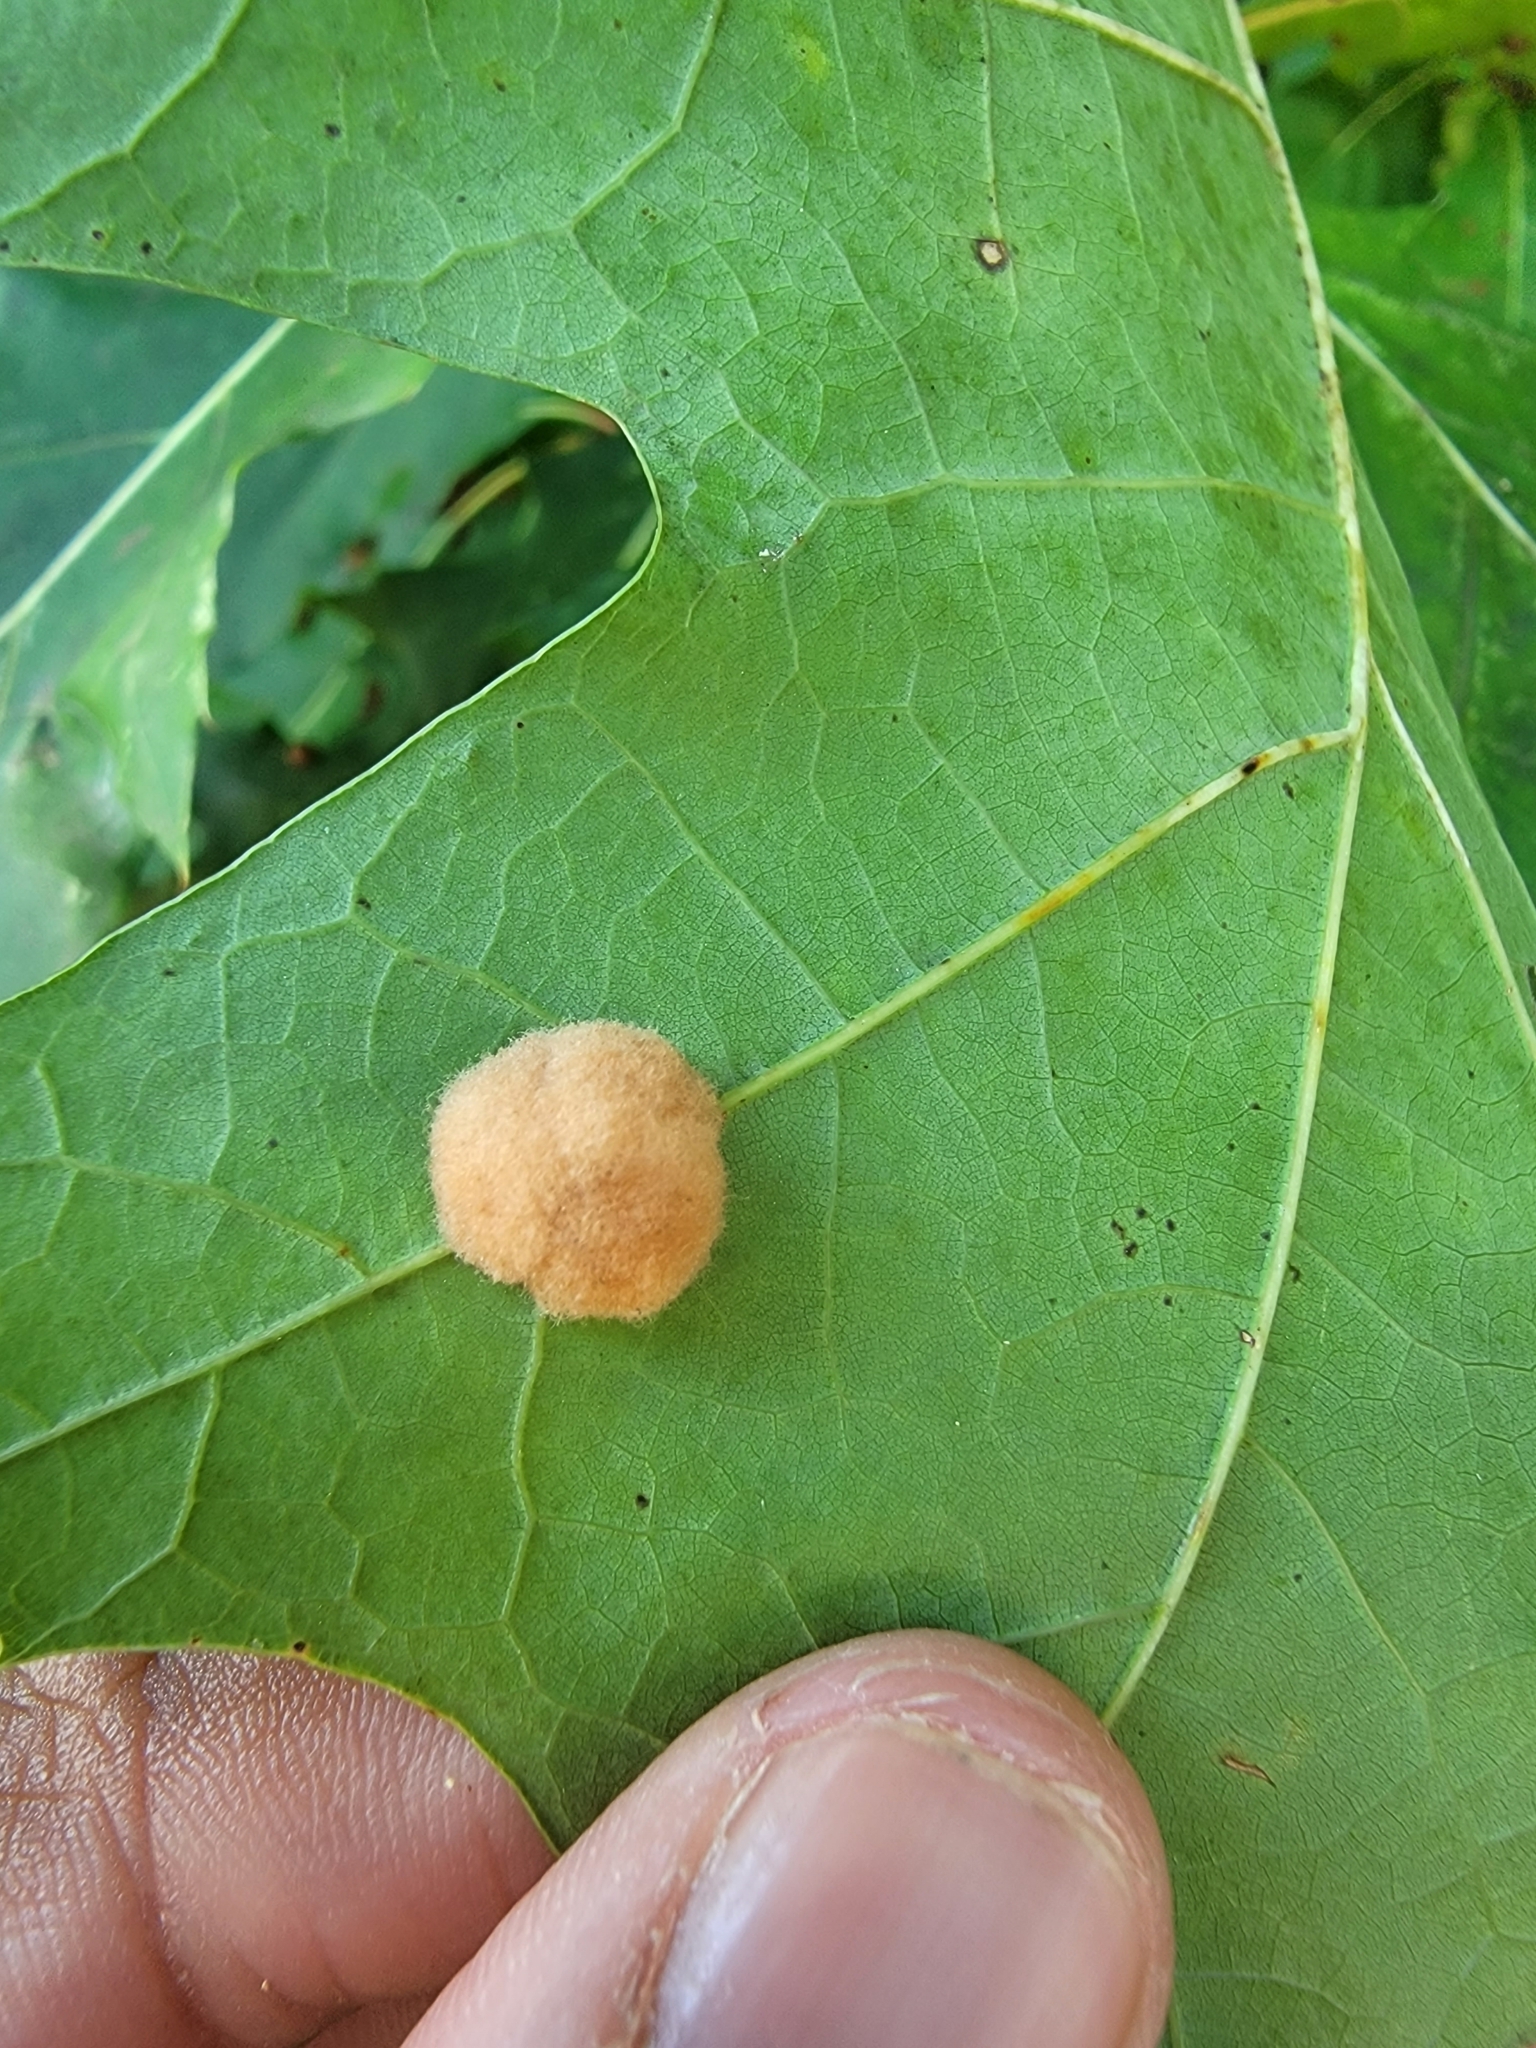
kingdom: Animalia
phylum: Arthropoda
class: Insecta
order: Hymenoptera
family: Cynipidae
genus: Callirhytis
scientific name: Callirhytis
